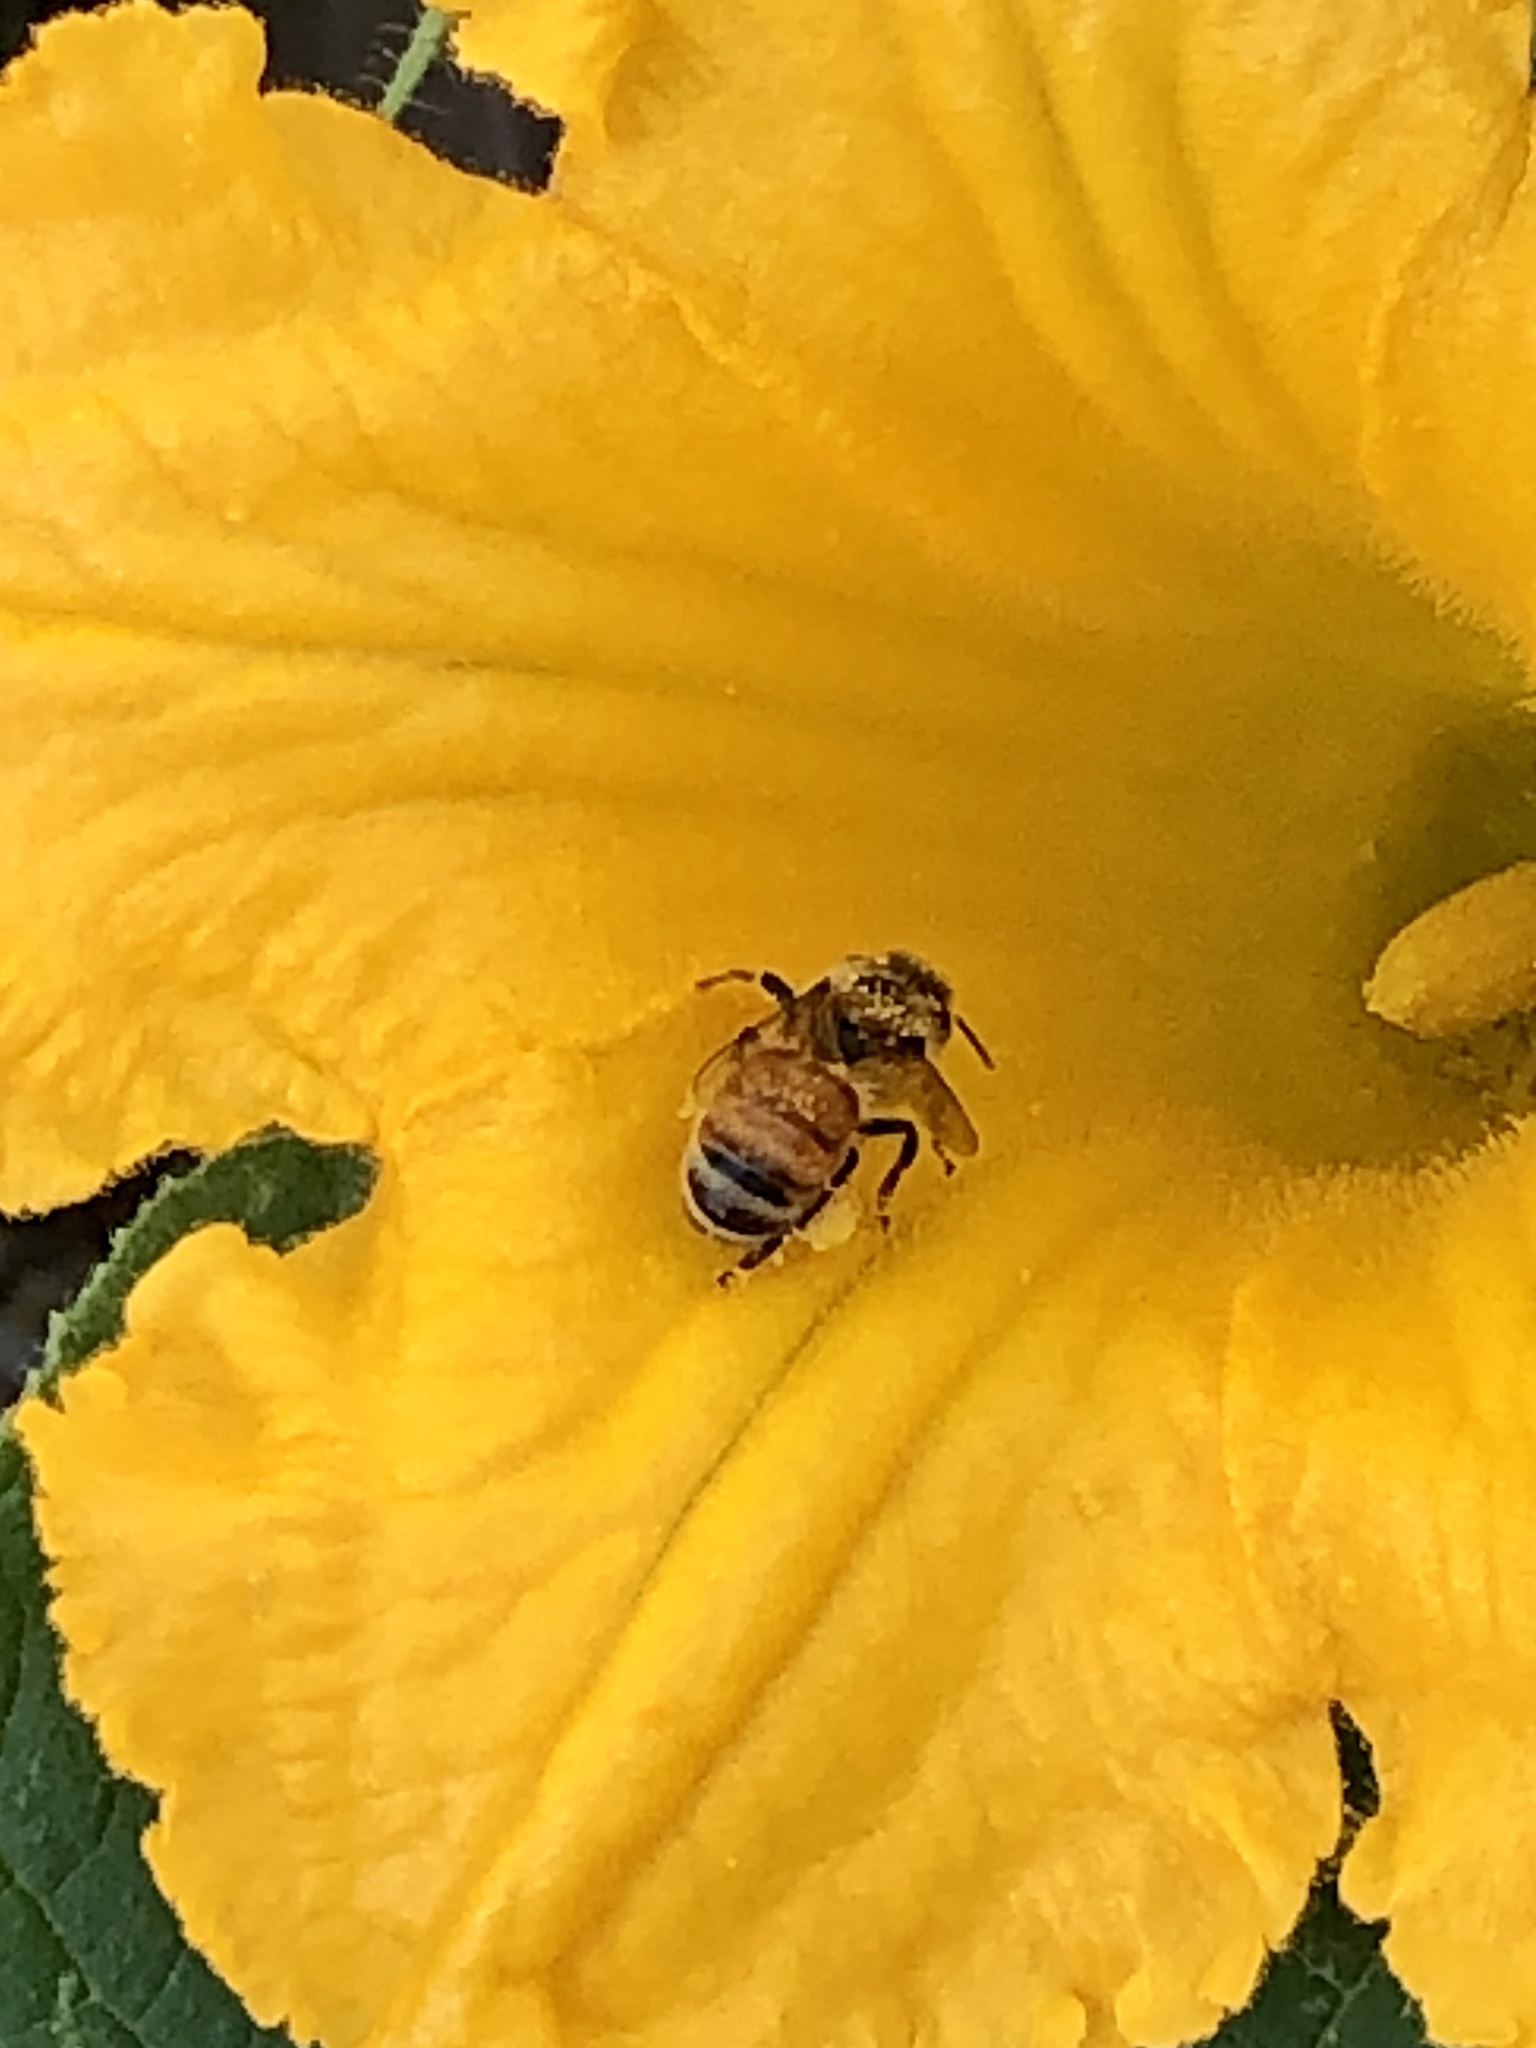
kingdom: Animalia
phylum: Arthropoda
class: Insecta
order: Hymenoptera
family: Apidae
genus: Apis
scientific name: Apis mellifera
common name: Honey bee
